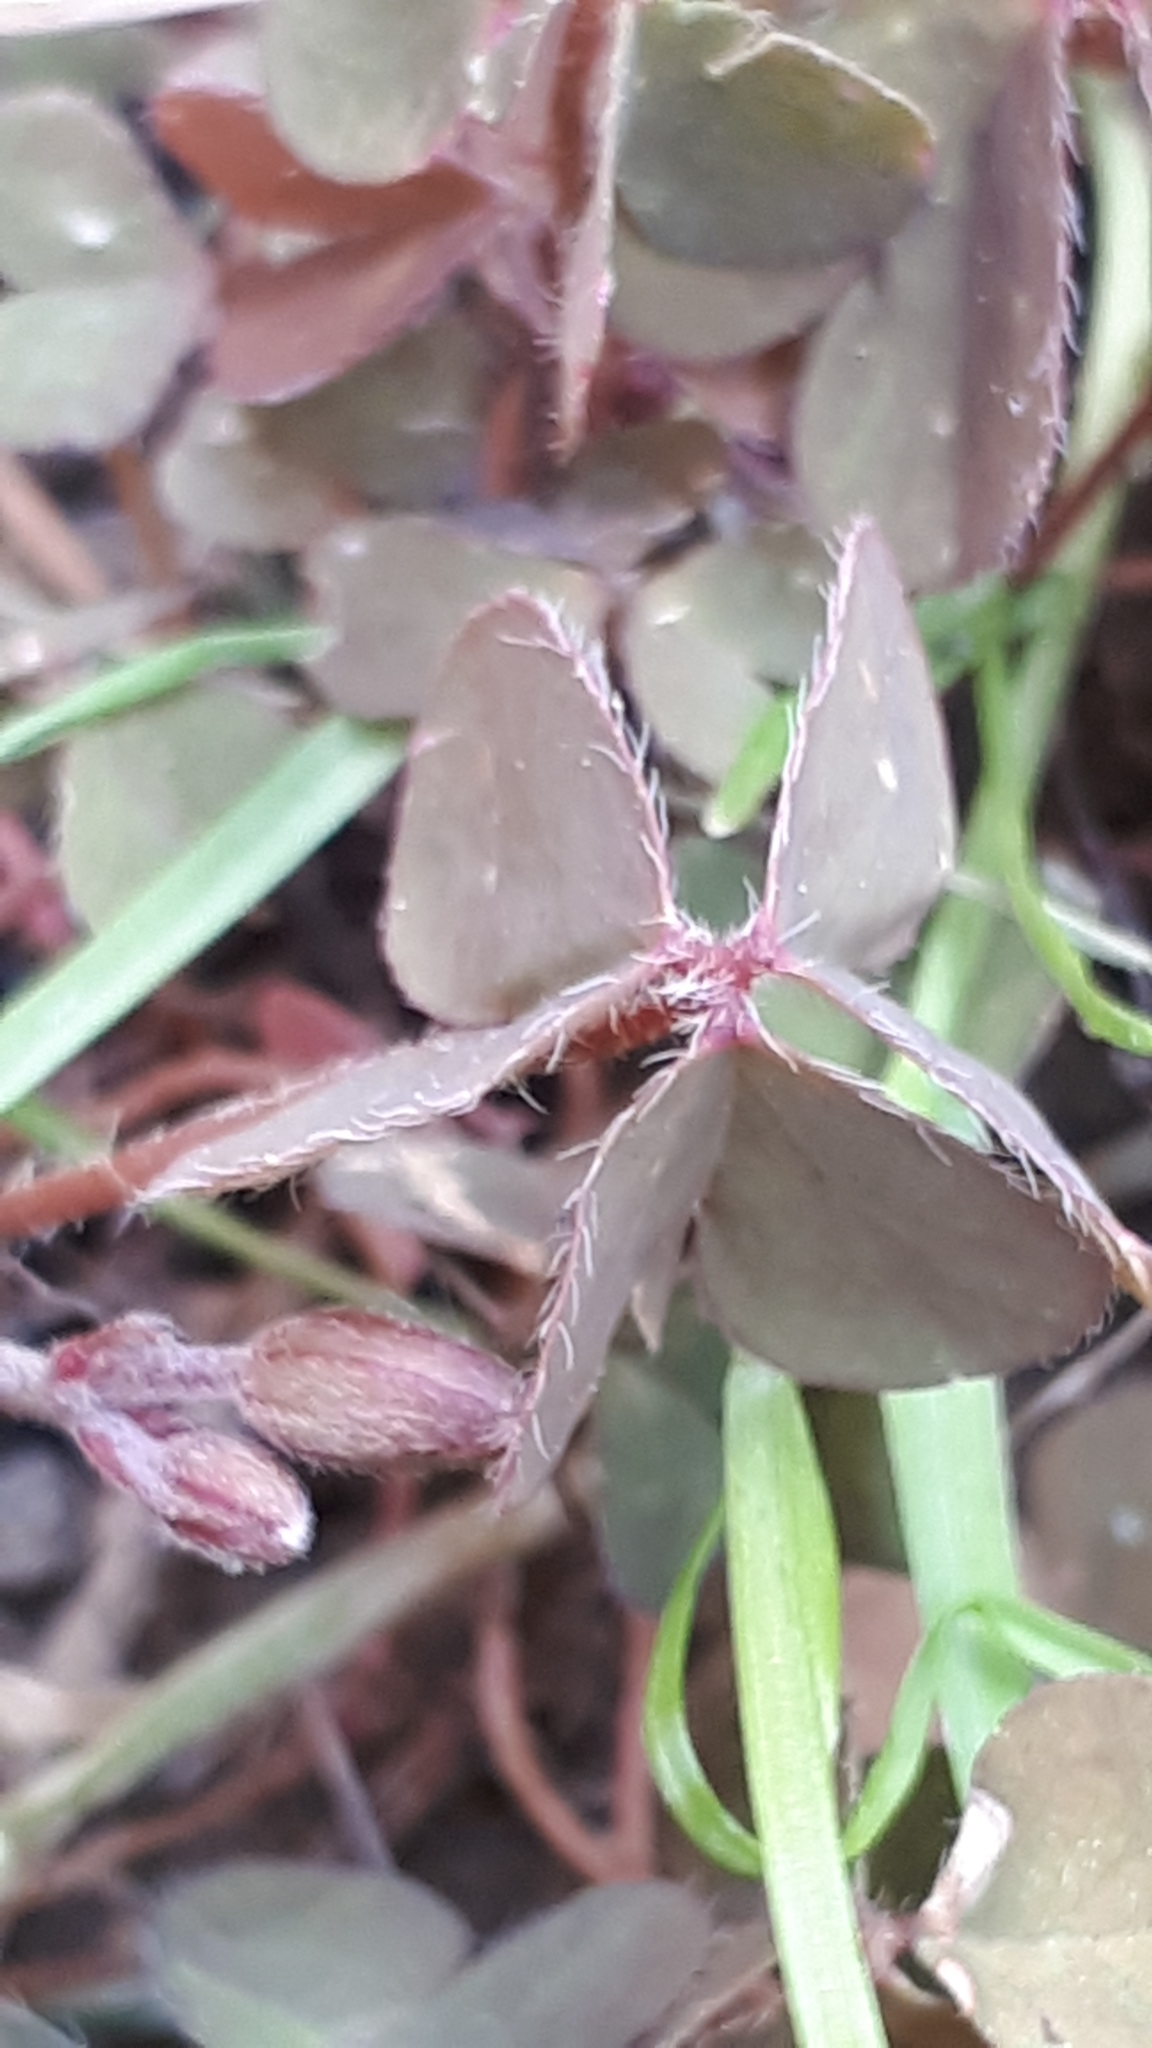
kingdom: Plantae
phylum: Tracheophyta
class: Magnoliopsida
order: Oxalidales
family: Oxalidaceae
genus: Oxalis
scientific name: Oxalis corniculata
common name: Procumbent yellow-sorrel
